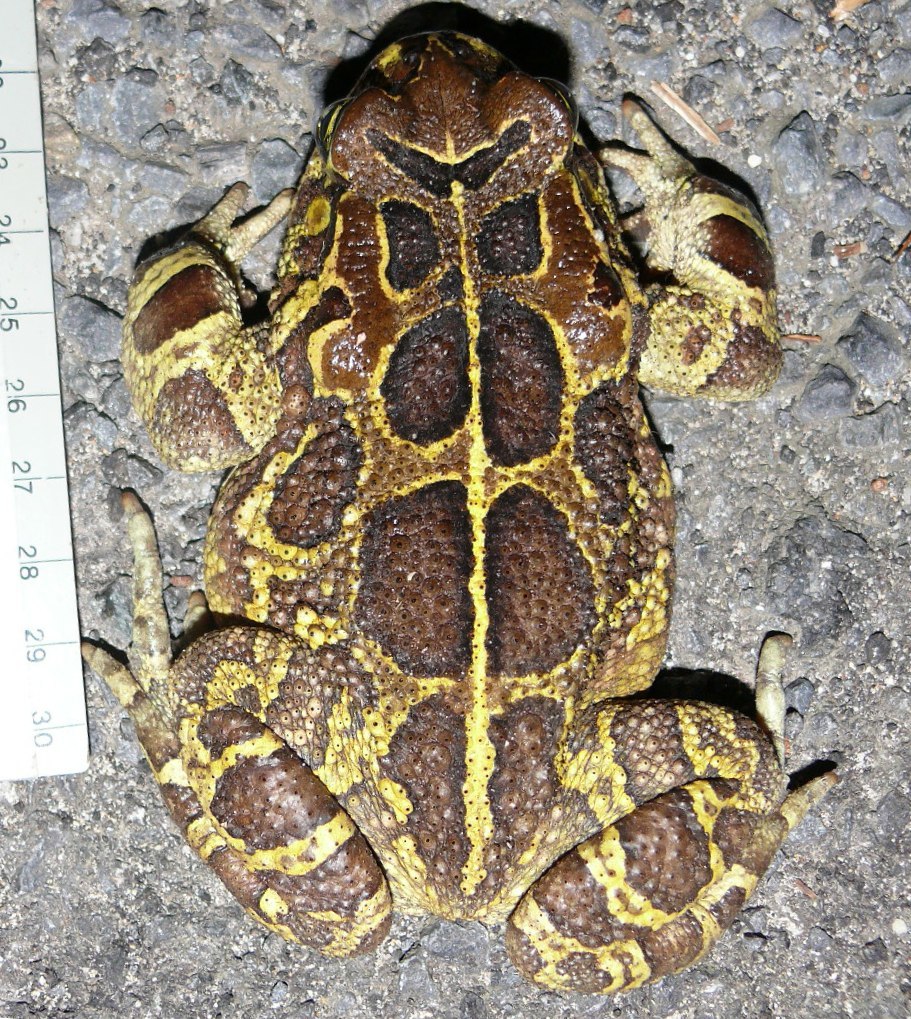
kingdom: Animalia
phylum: Chordata
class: Amphibia
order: Anura
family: Bufonidae
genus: Sclerophrys
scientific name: Sclerophrys pantherina
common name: Panther toad
